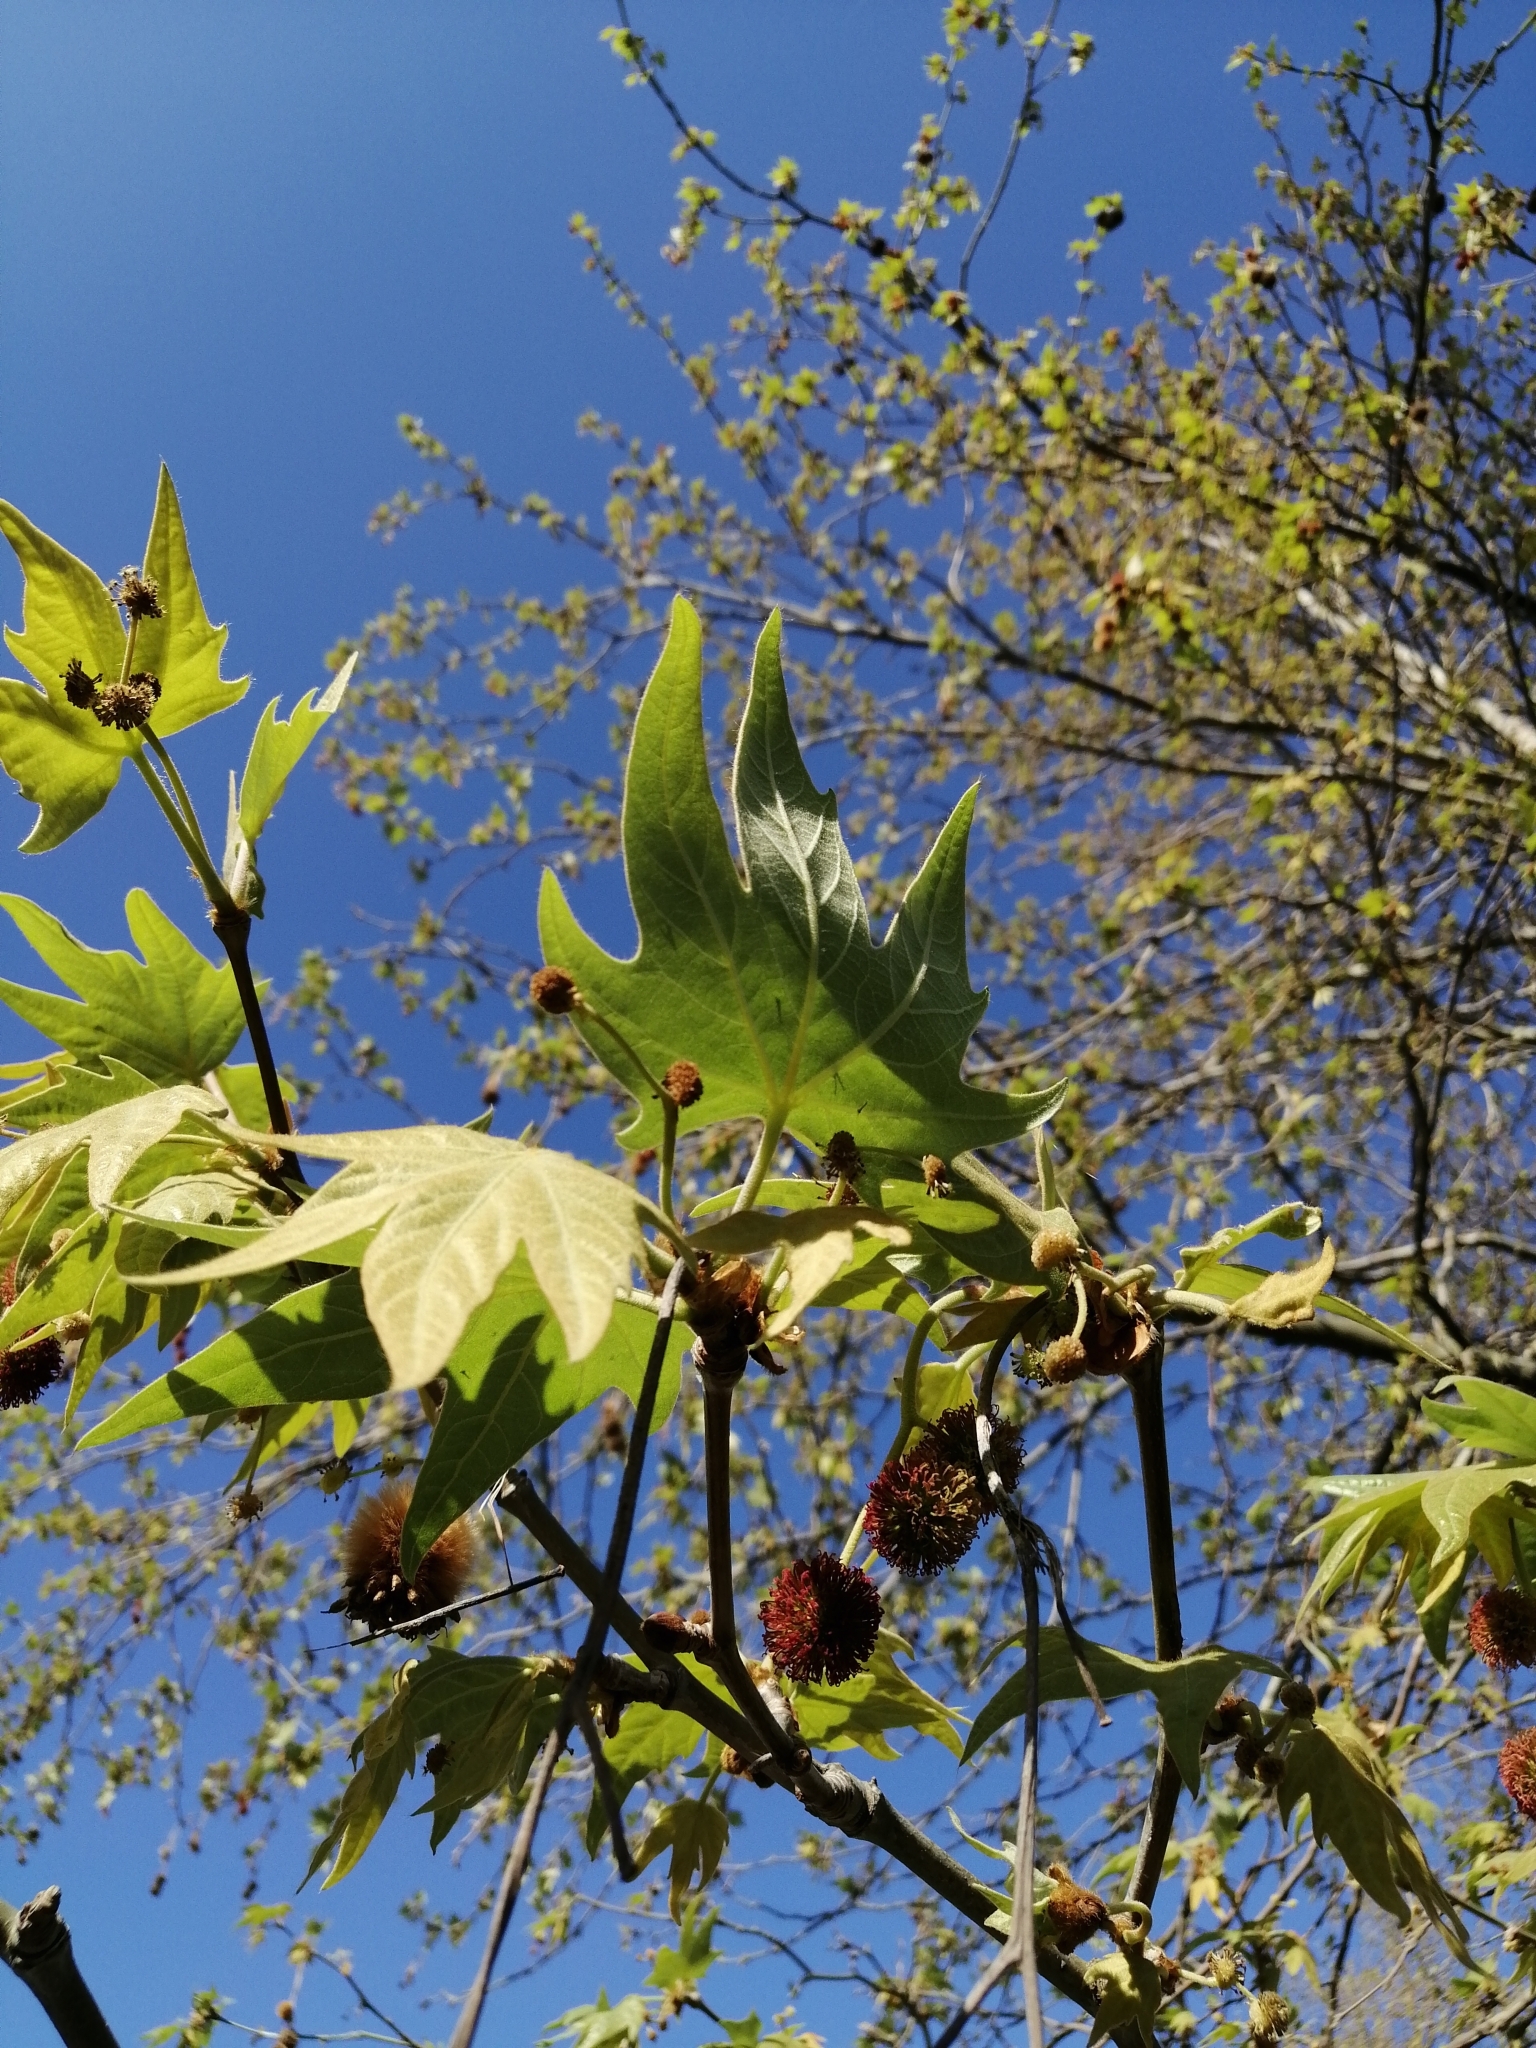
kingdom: Plantae
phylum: Tracheophyta
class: Magnoliopsida
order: Proteales
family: Platanaceae
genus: Platanus
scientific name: Platanus orientalis
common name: Oriental plane
